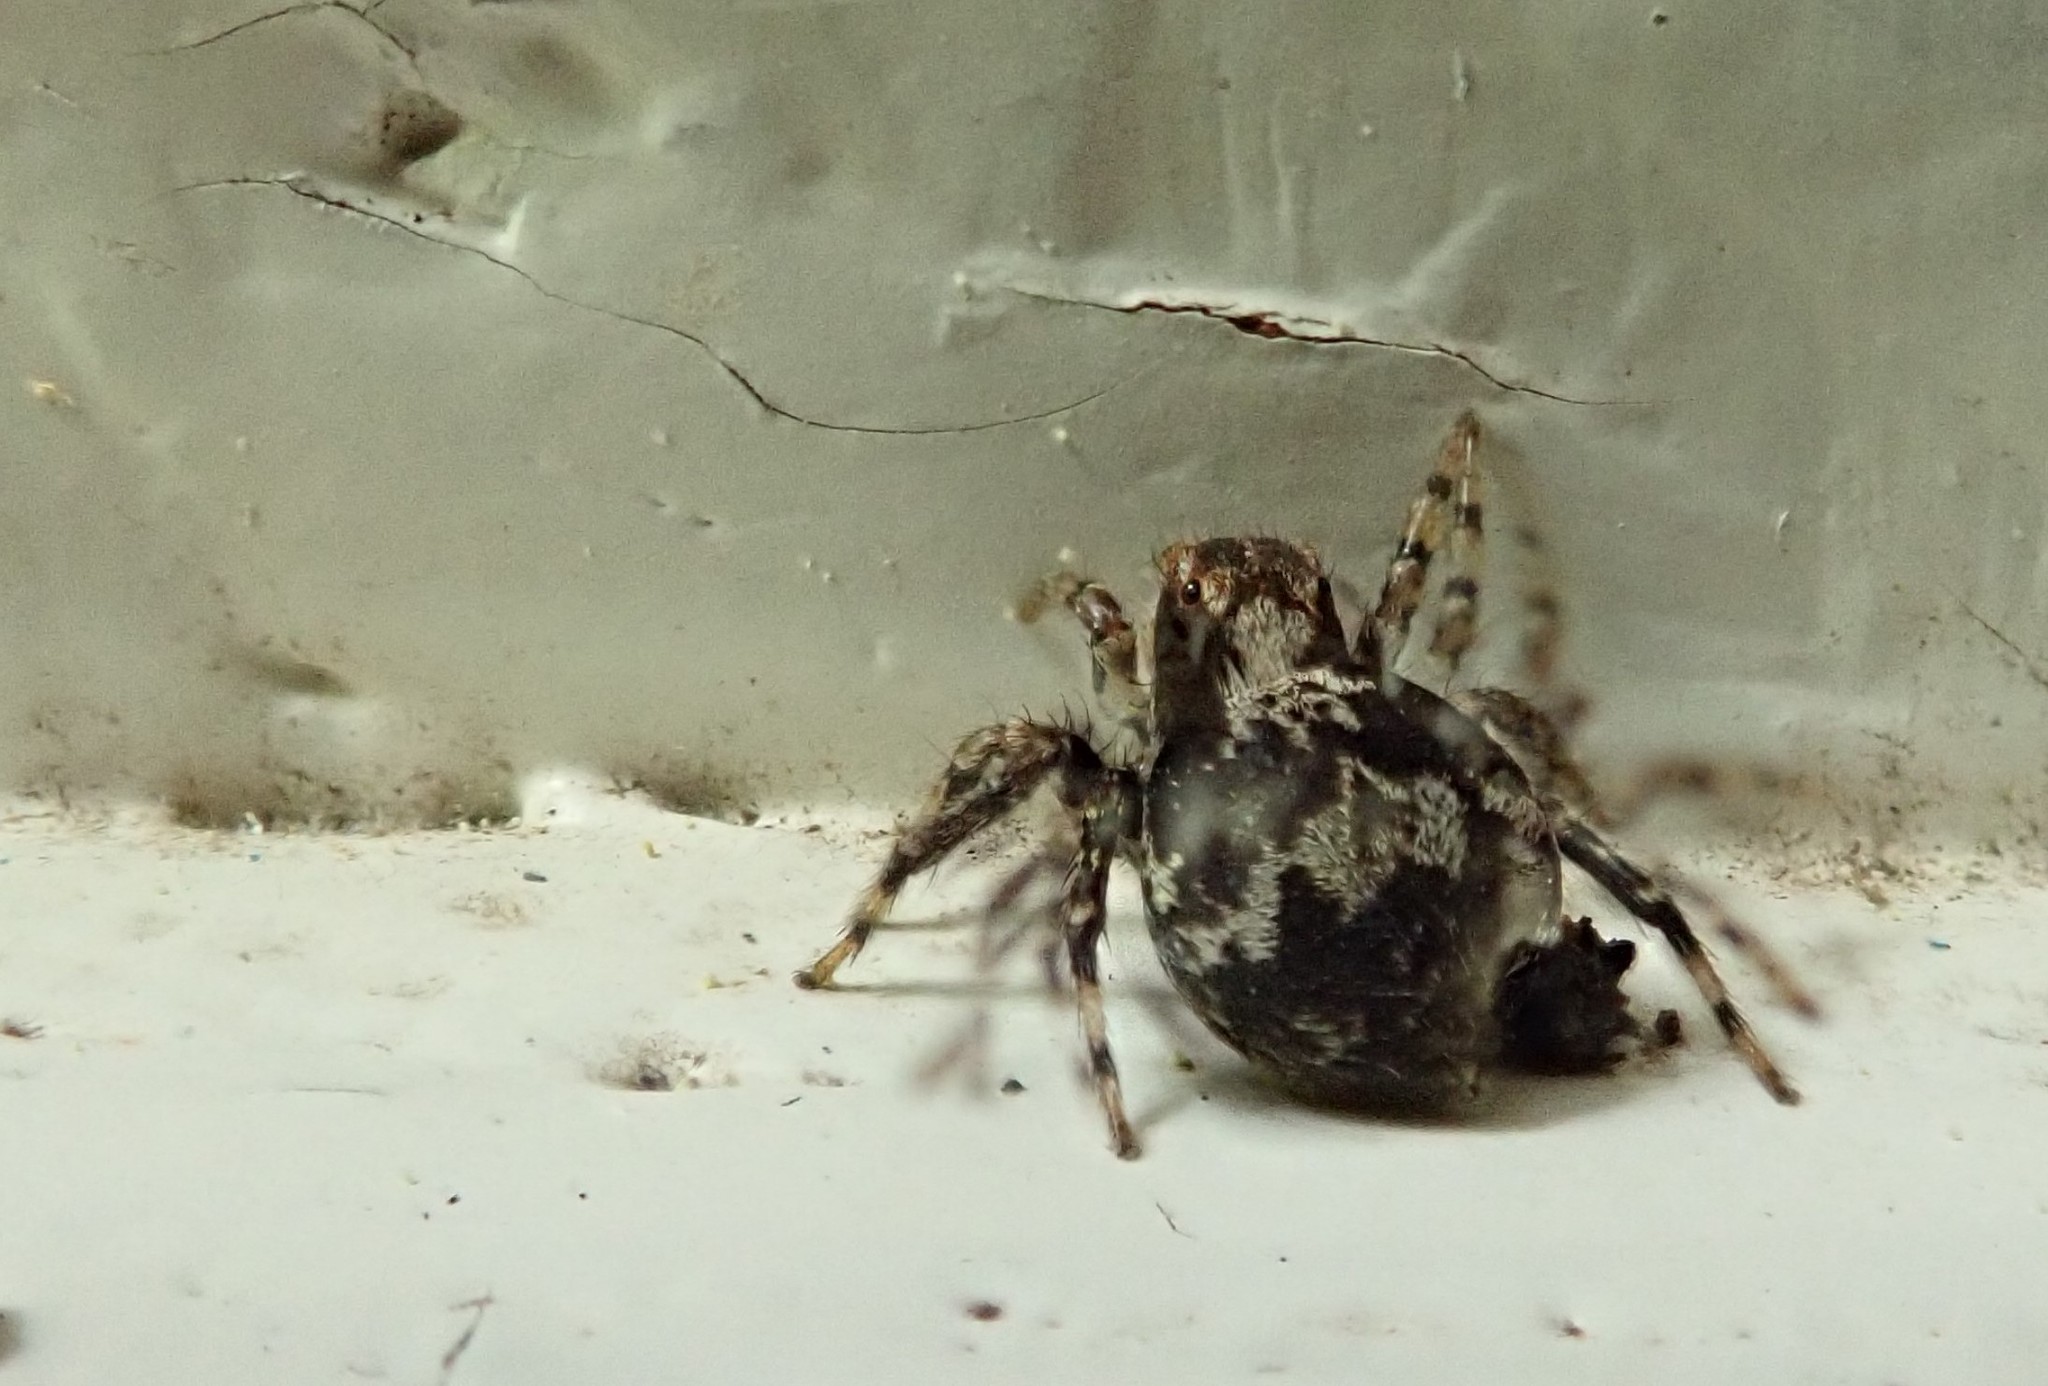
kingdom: Animalia
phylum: Arthropoda
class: Arachnida
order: Araneae
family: Salticidae
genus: Naphrys
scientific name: Naphrys pulex
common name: Flea jumping spider
